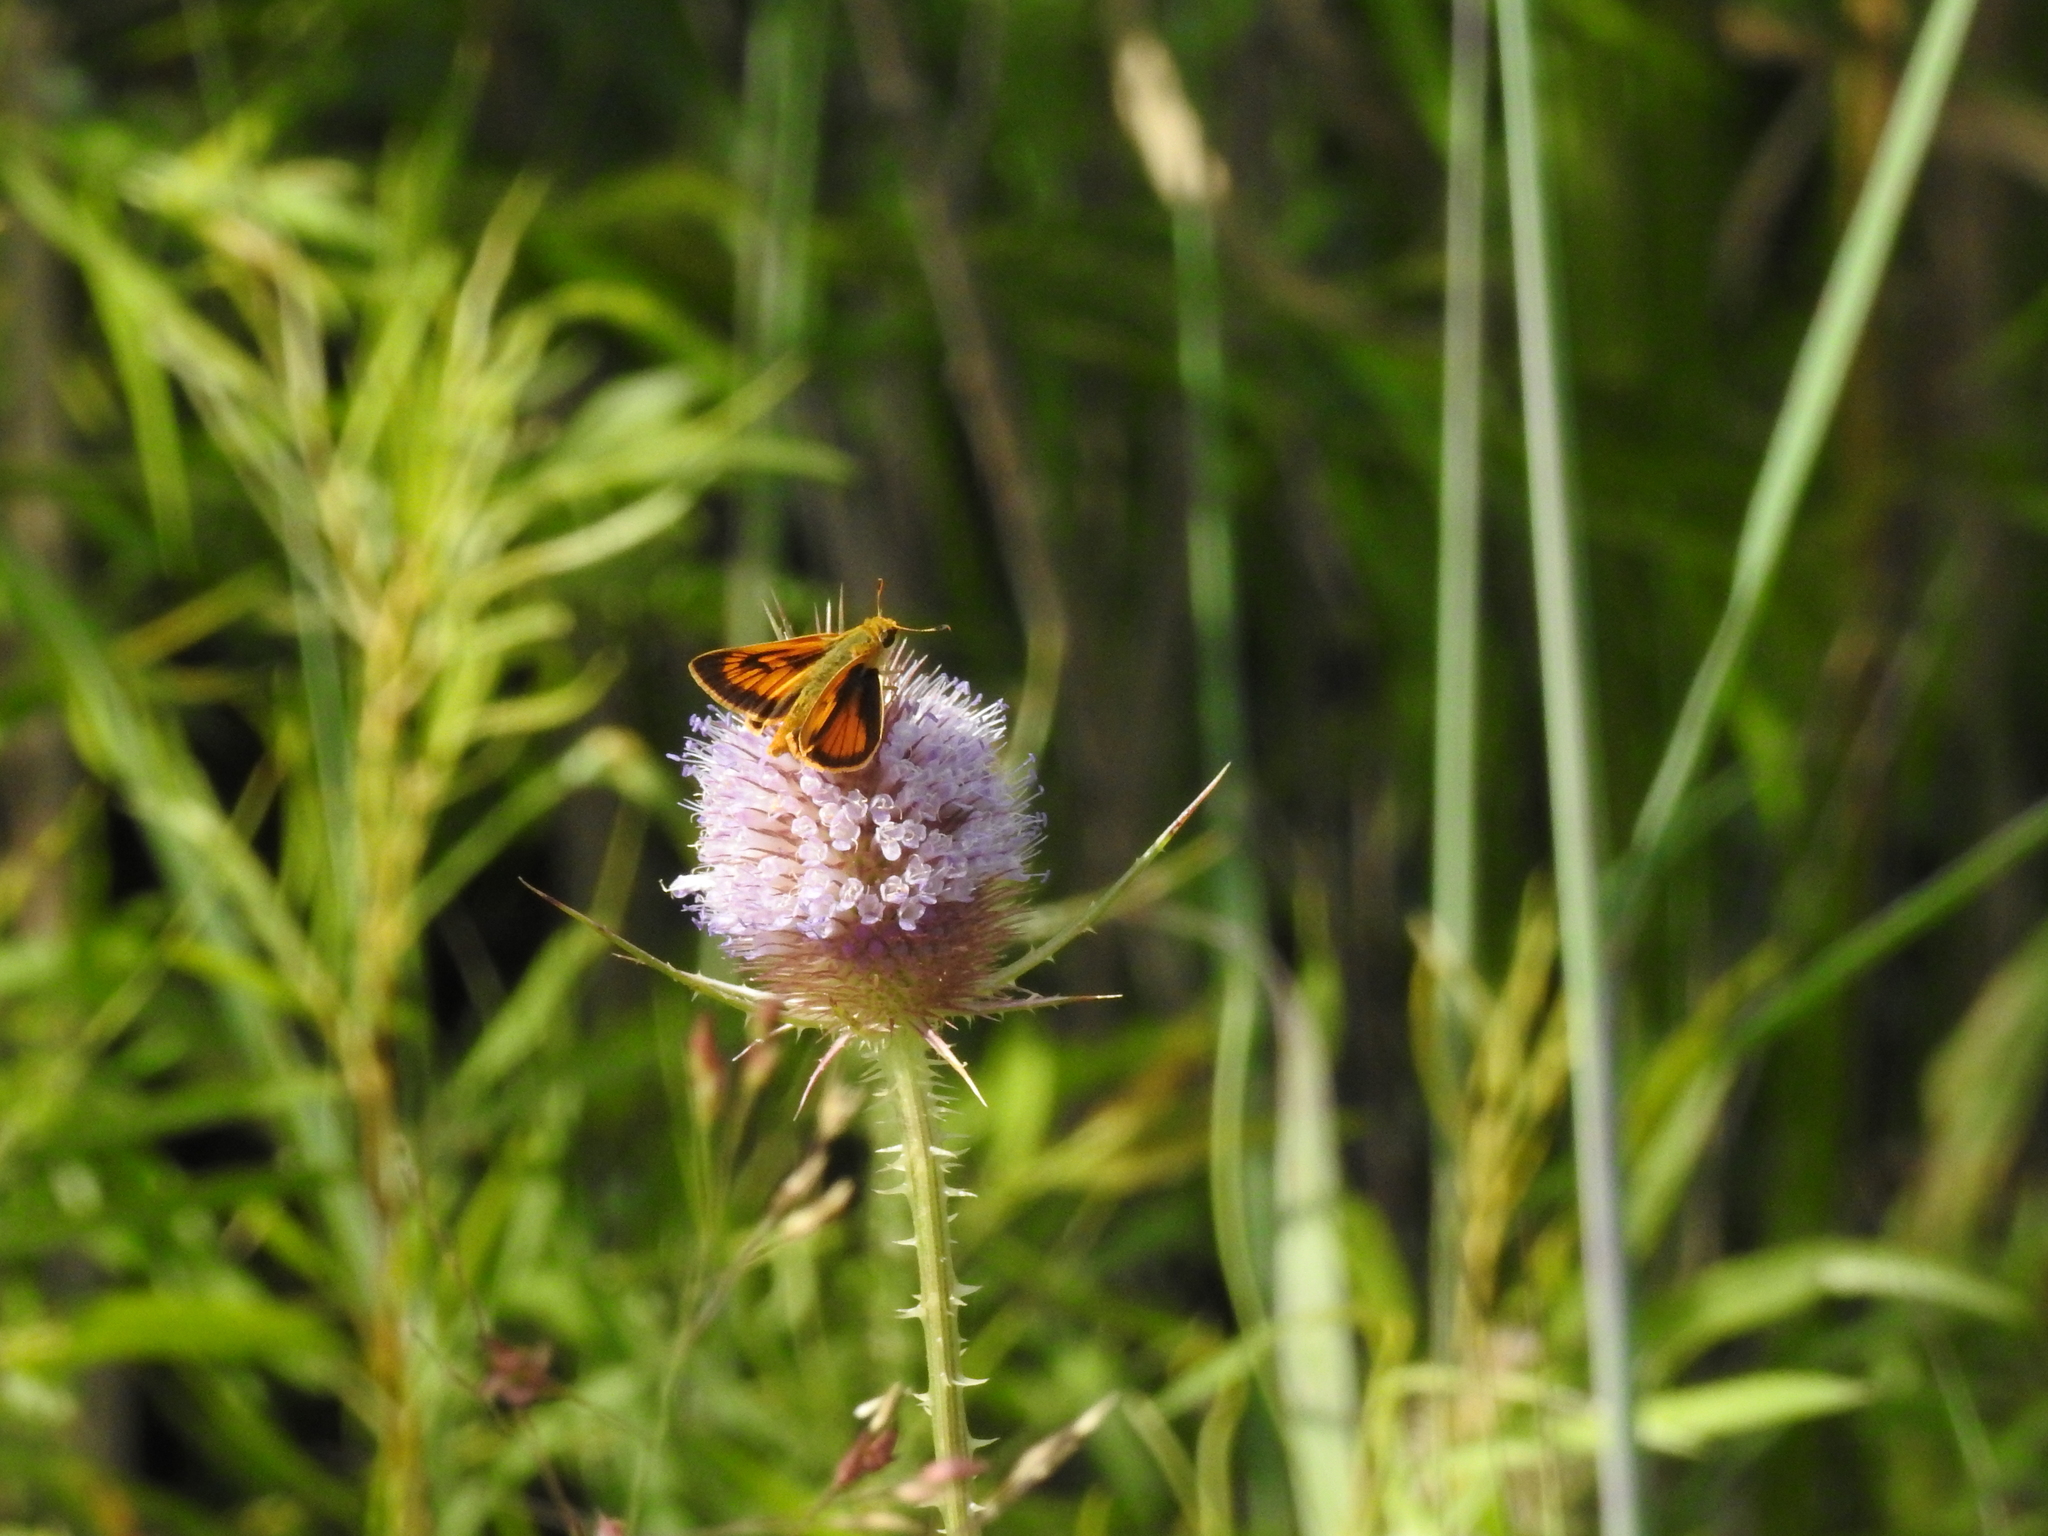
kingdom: Animalia
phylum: Arthropoda
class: Insecta
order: Lepidoptera
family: Hesperiidae
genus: Atrytone
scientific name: Atrytone delaware
